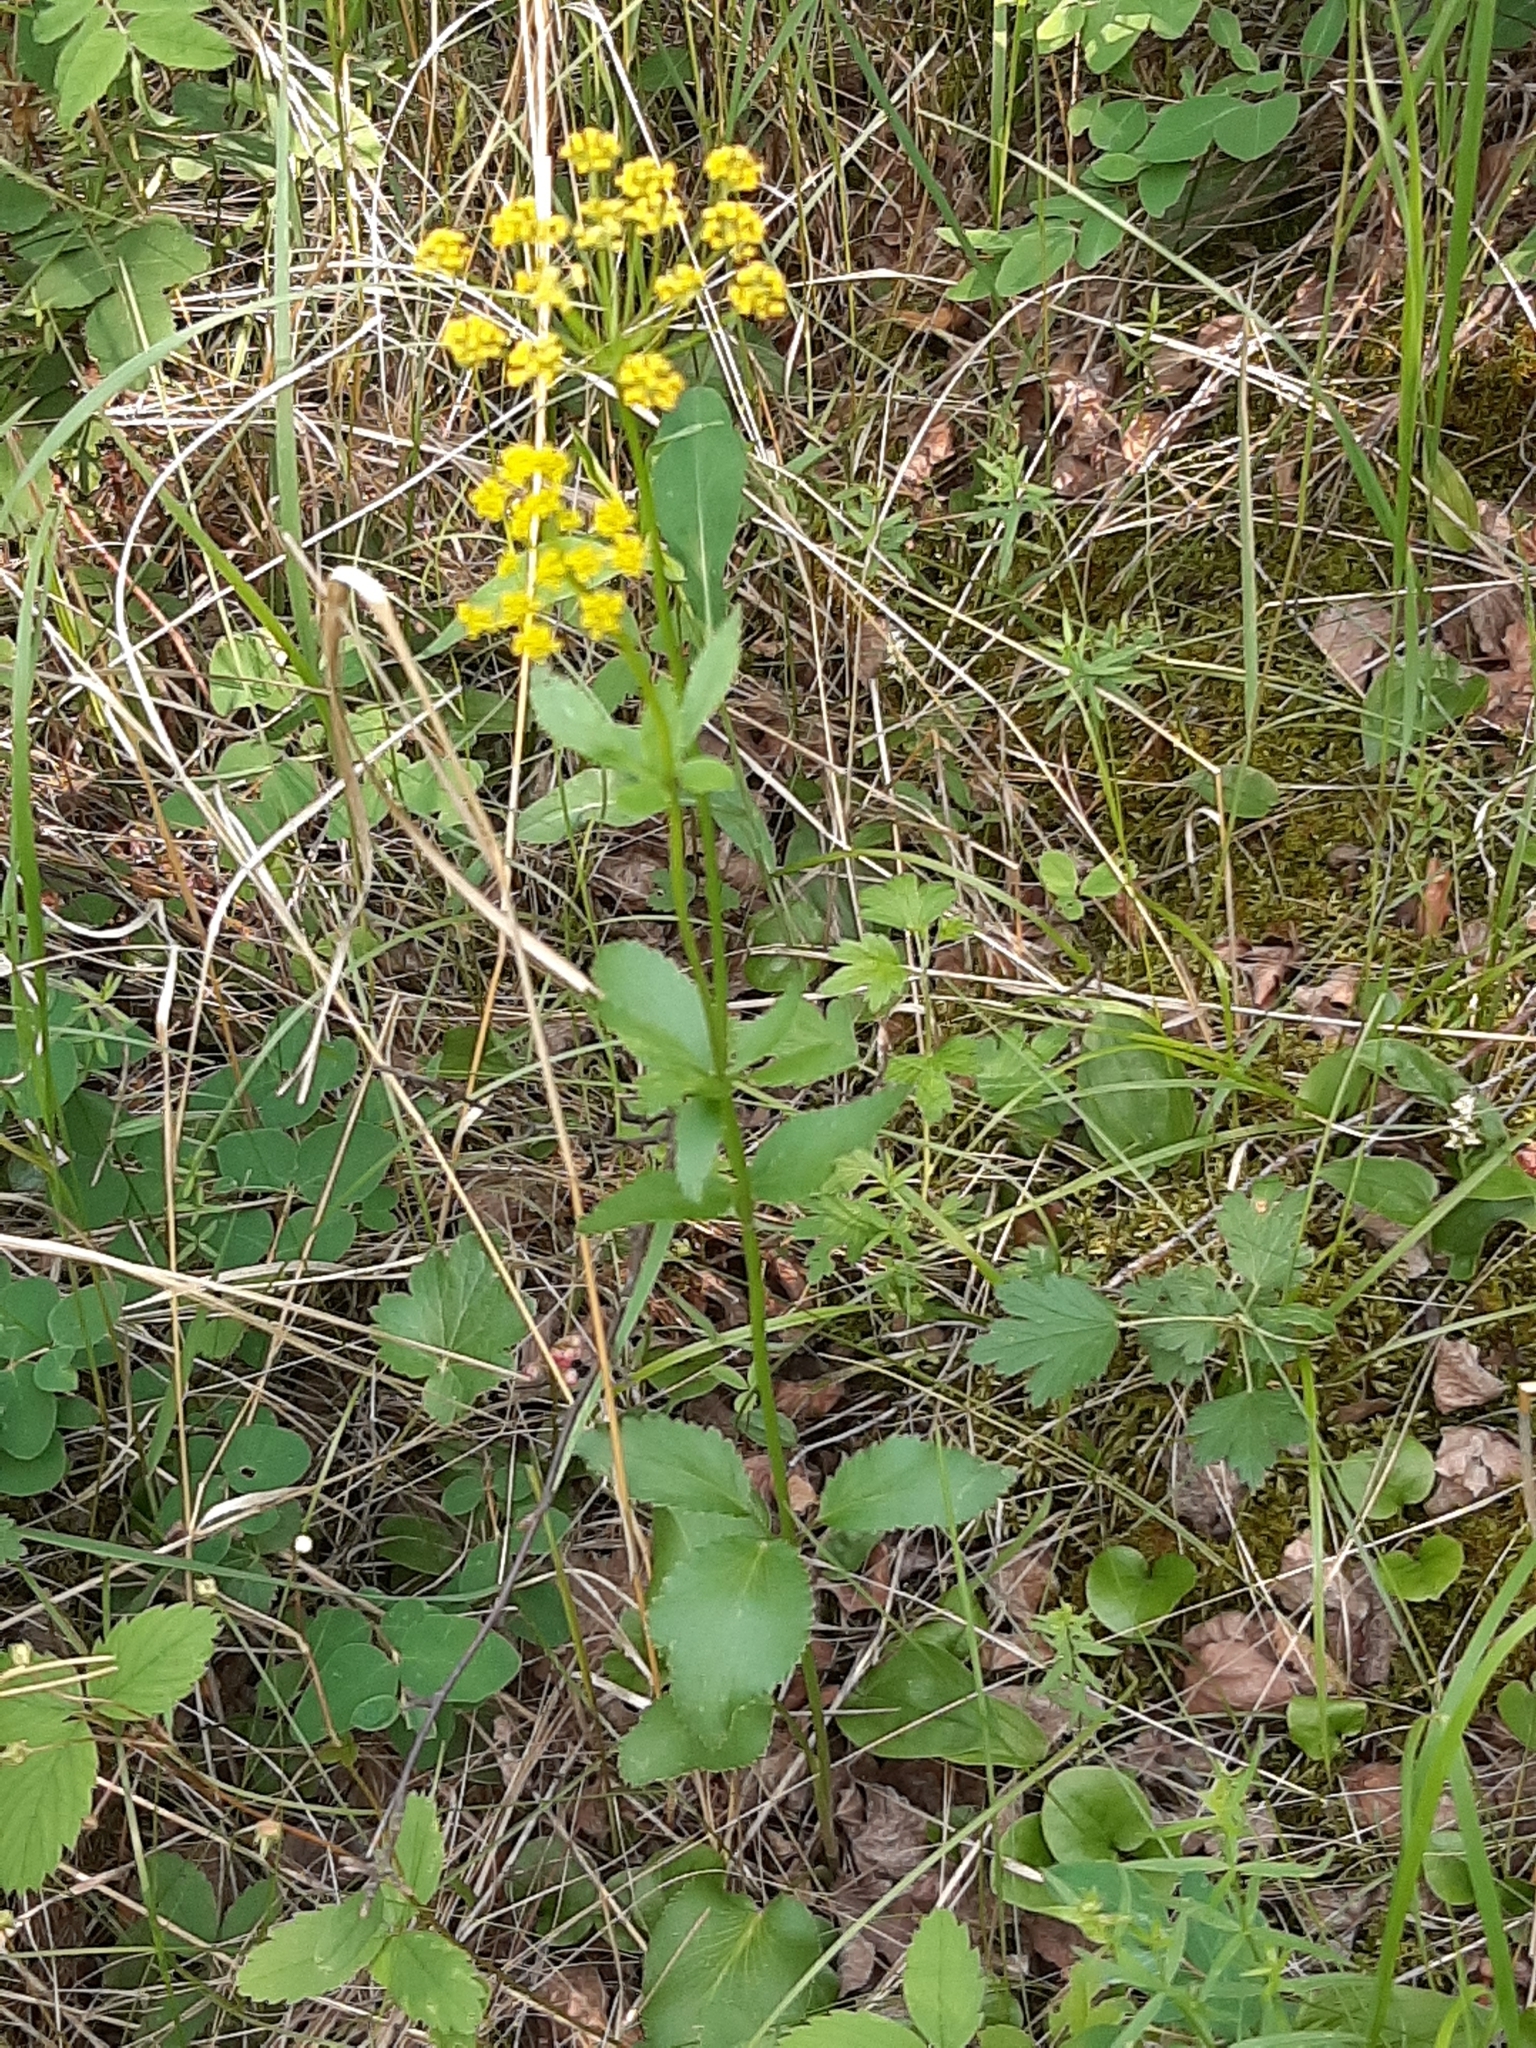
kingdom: Plantae
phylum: Tracheophyta
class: Magnoliopsida
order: Apiales
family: Apiaceae
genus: Zizia
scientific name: Zizia aptera
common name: Heart-leaved alexanders
